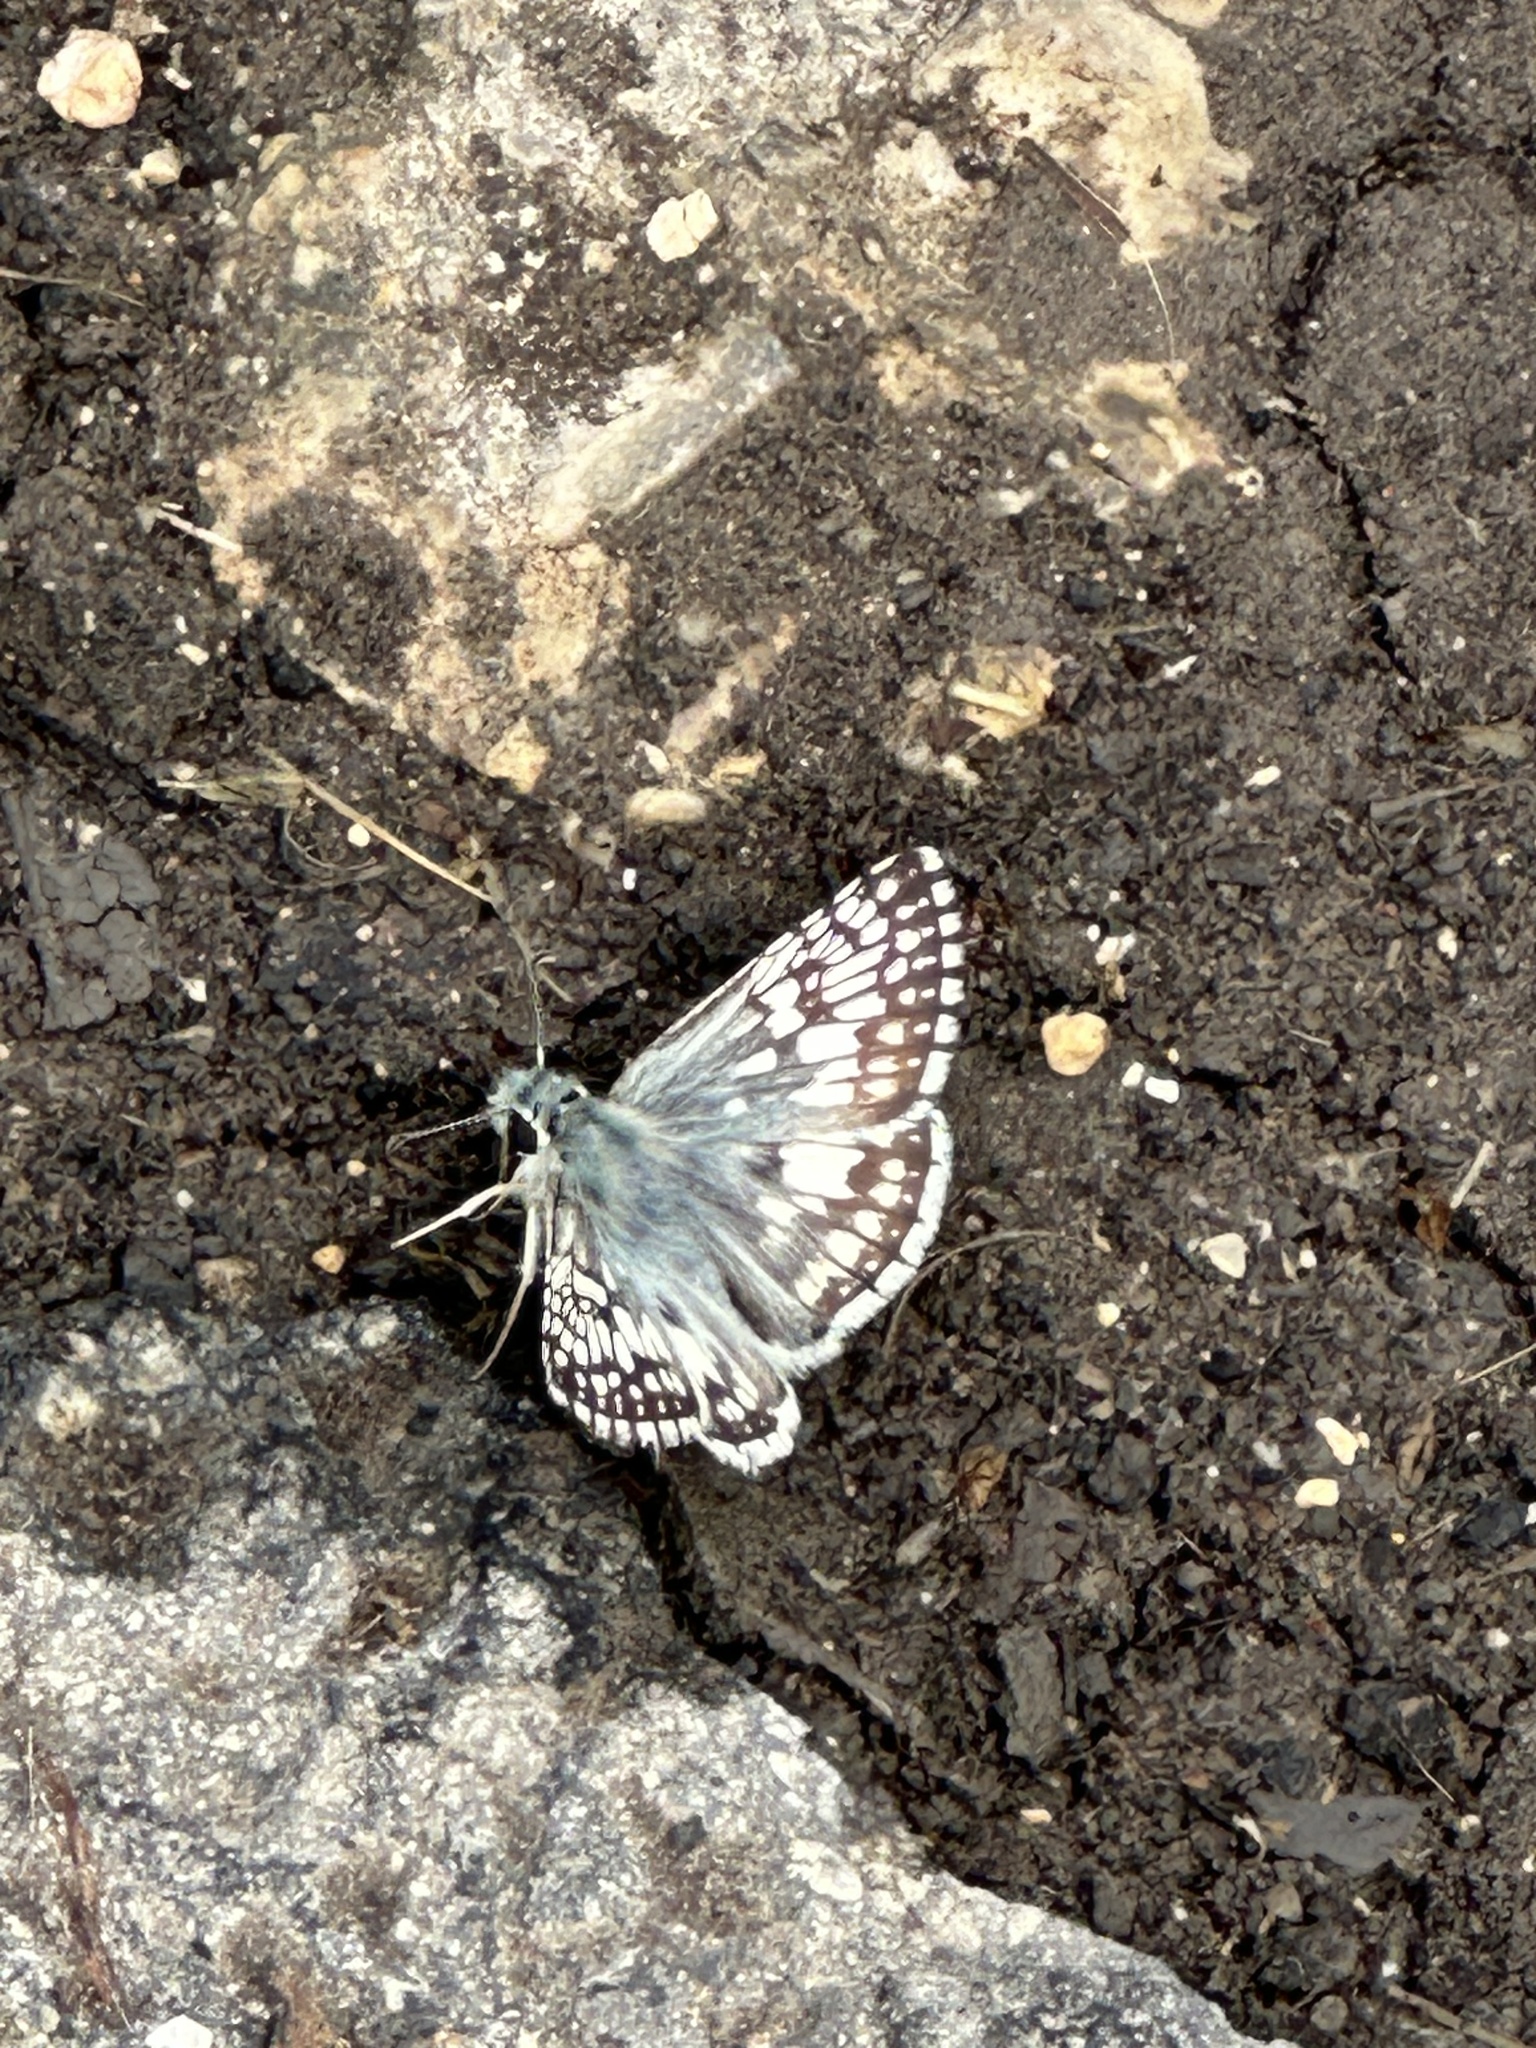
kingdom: Animalia
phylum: Arthropoda
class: Insecta
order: Lepidoptera
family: Hesperiidae
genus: Burnsius
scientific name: Burnsius
